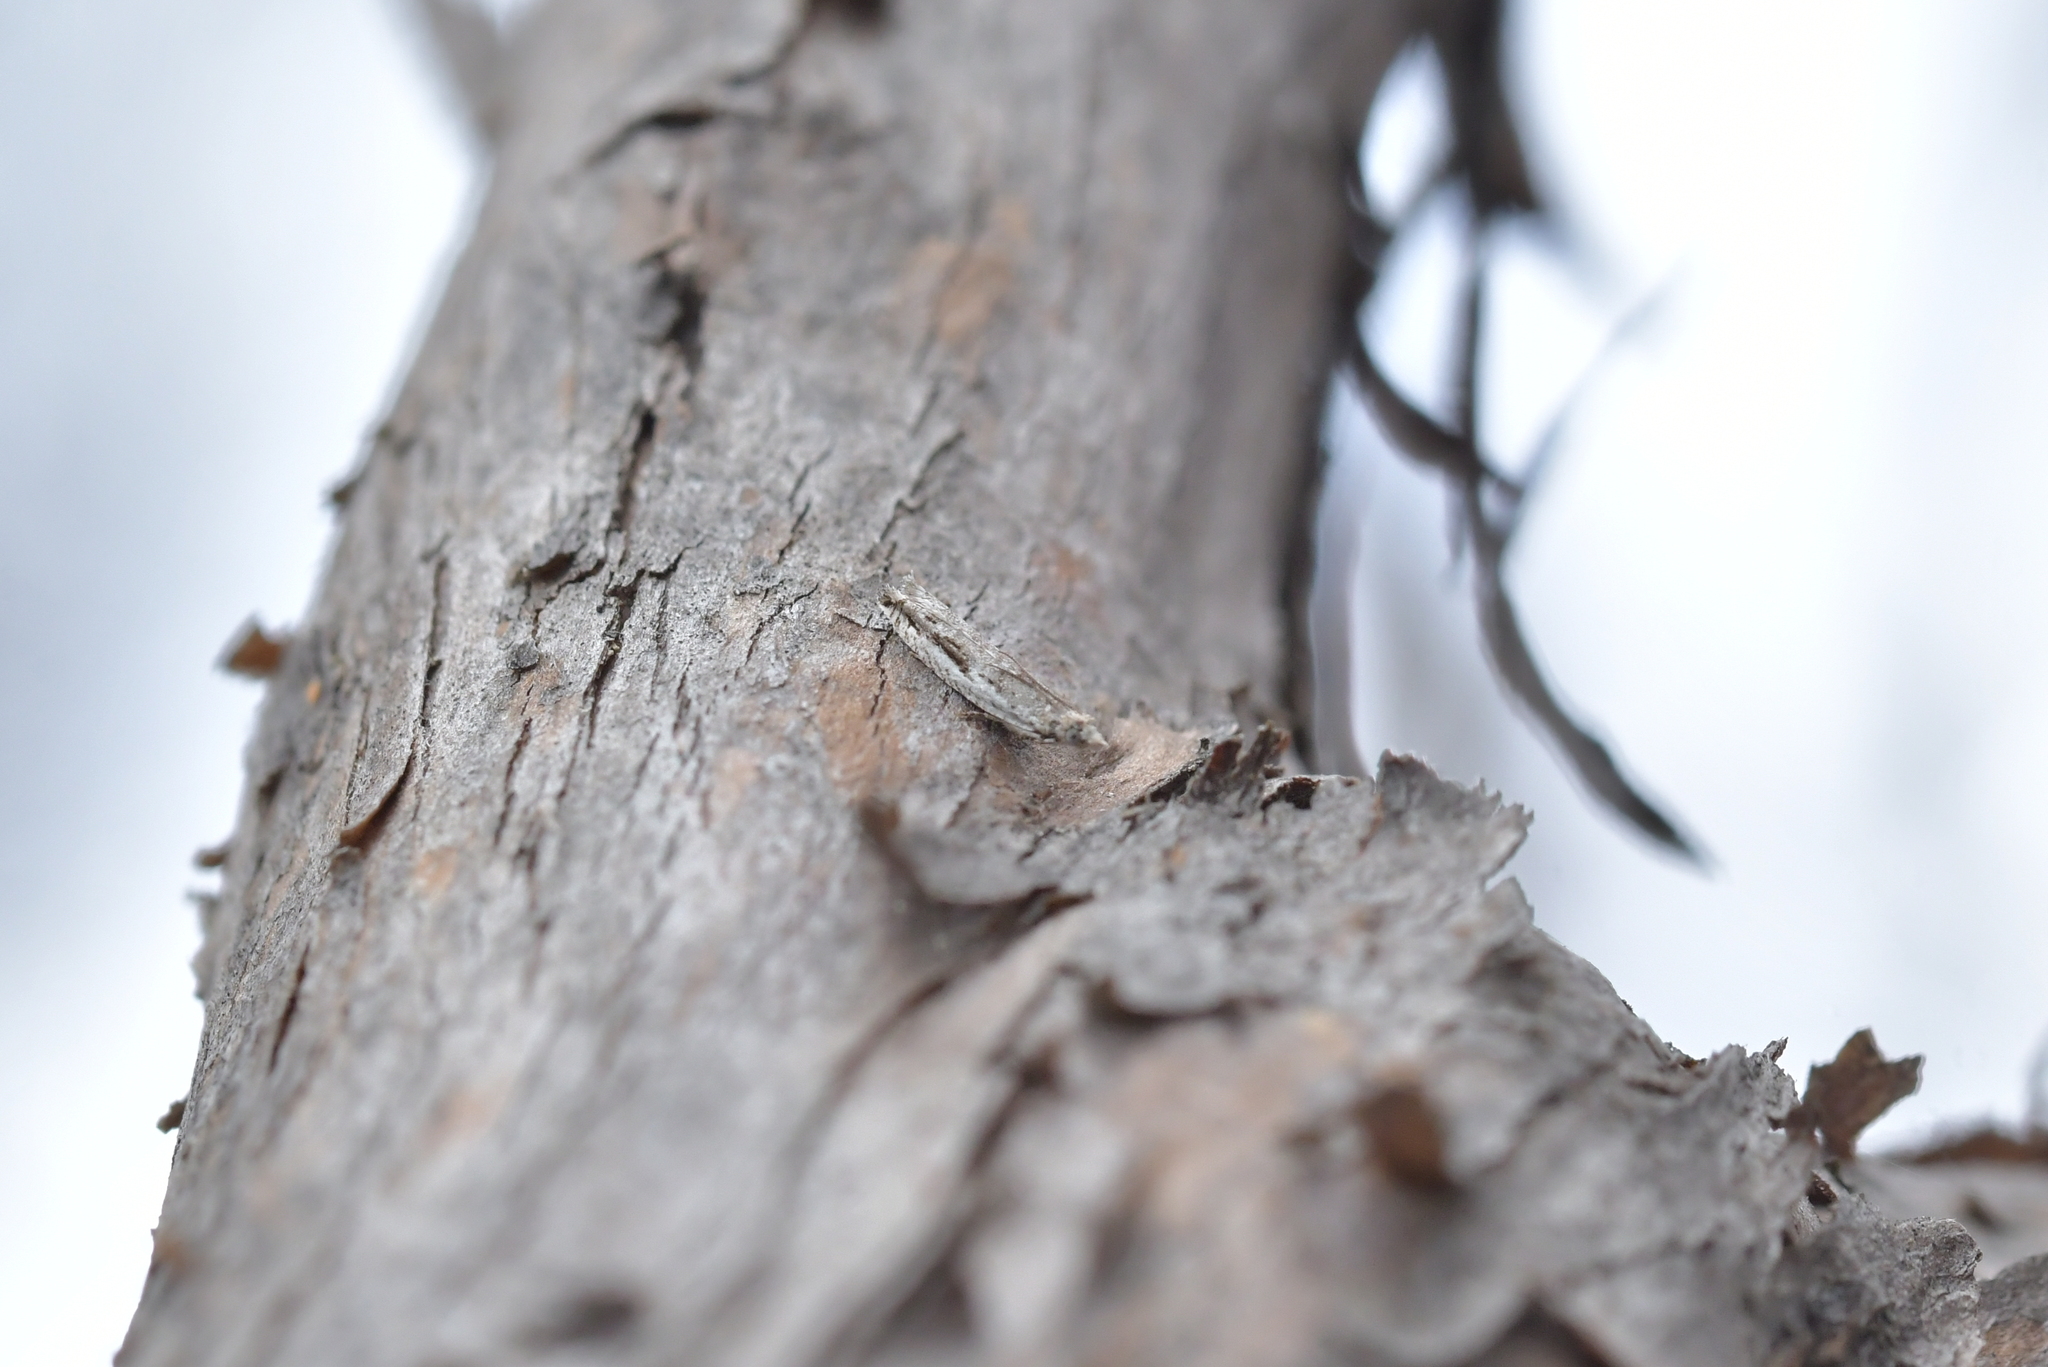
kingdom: Animalia
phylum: Arthropoda
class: Insecta
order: Lepidoptera
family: Tortricidae
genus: Holocola
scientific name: Holocola
